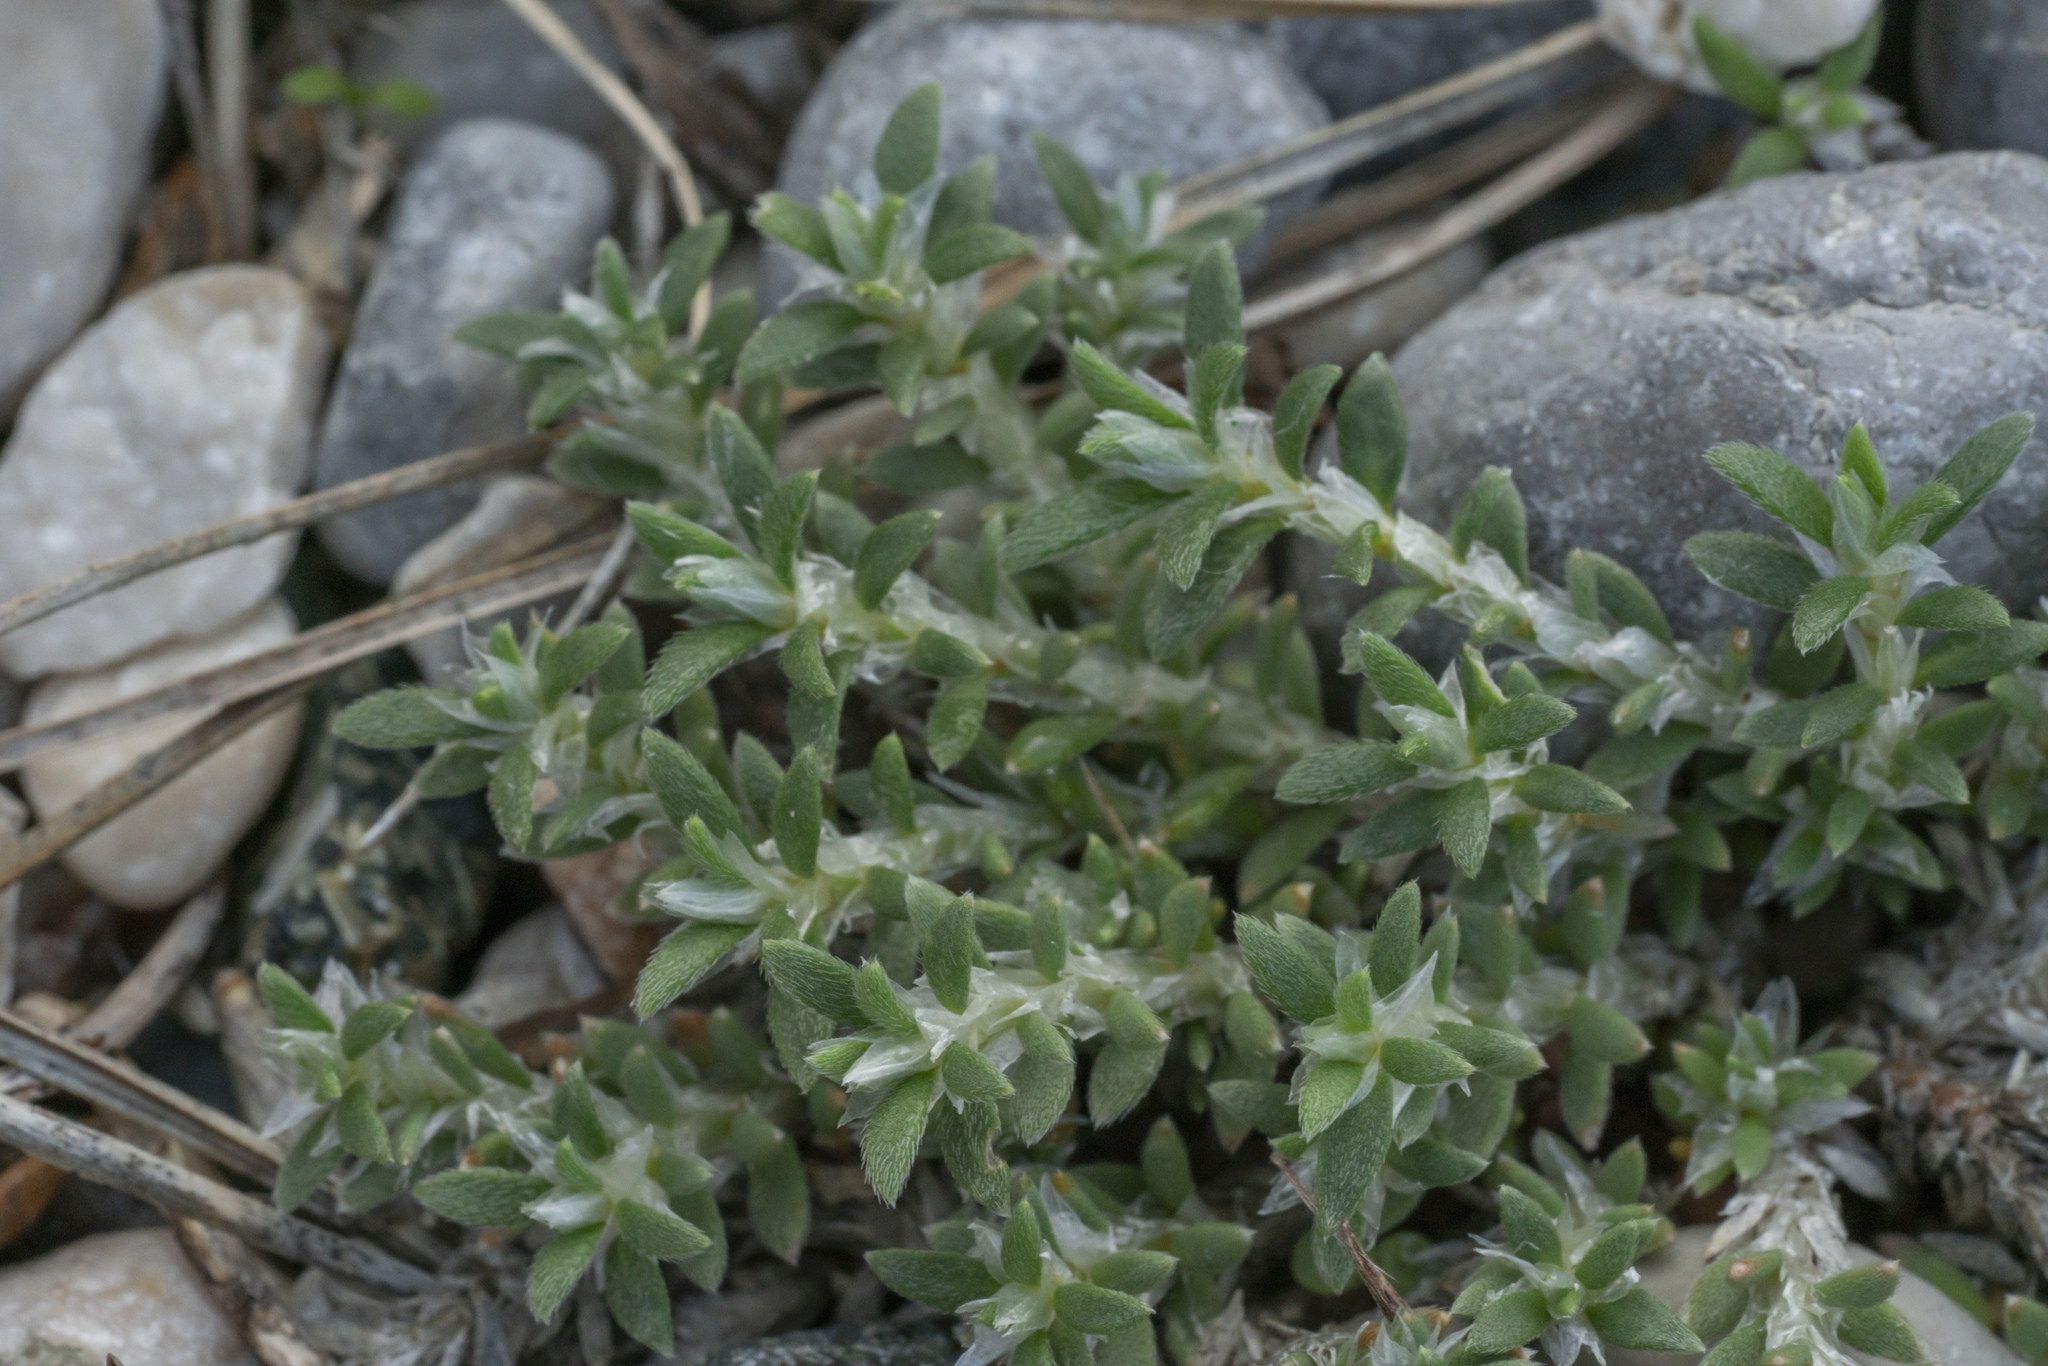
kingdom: Plantae
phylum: Tracheophyta
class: Magnoliopsida
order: Caryophyllales
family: Caryophyllaceae
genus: Paronychia
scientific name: Paronychia macrosepala
